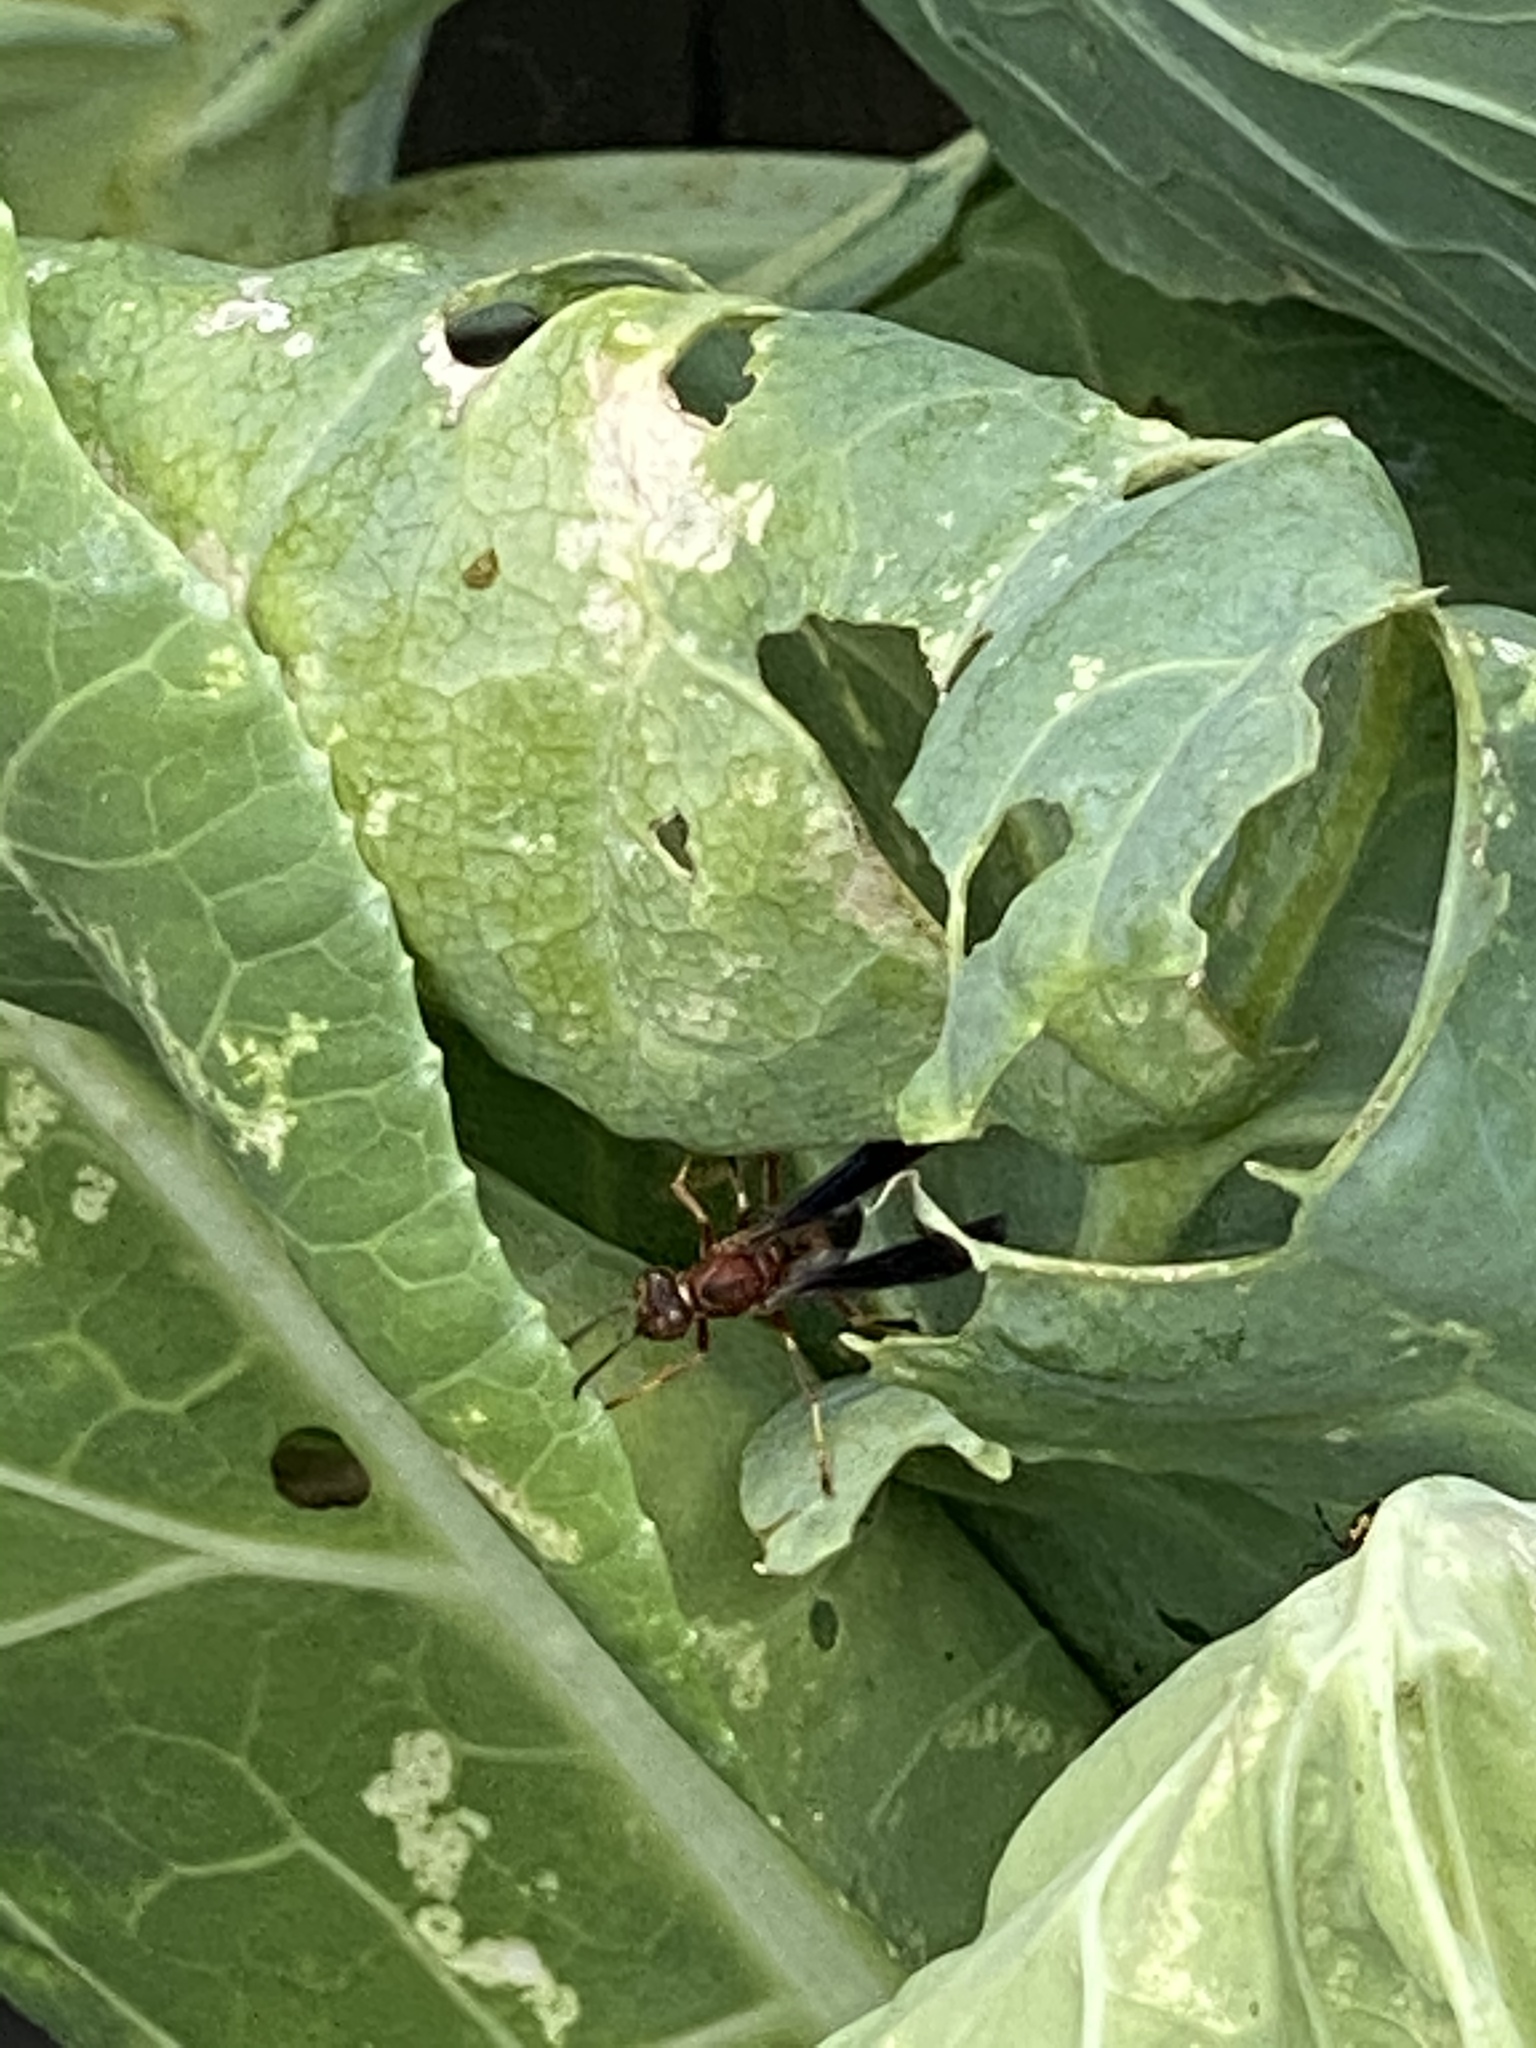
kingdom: Animalia
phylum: Arthropoda
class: Insecta
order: Hymenoptera
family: Eumenidae
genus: Polistes
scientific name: Polistes metricus
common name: Metric paper wasp
